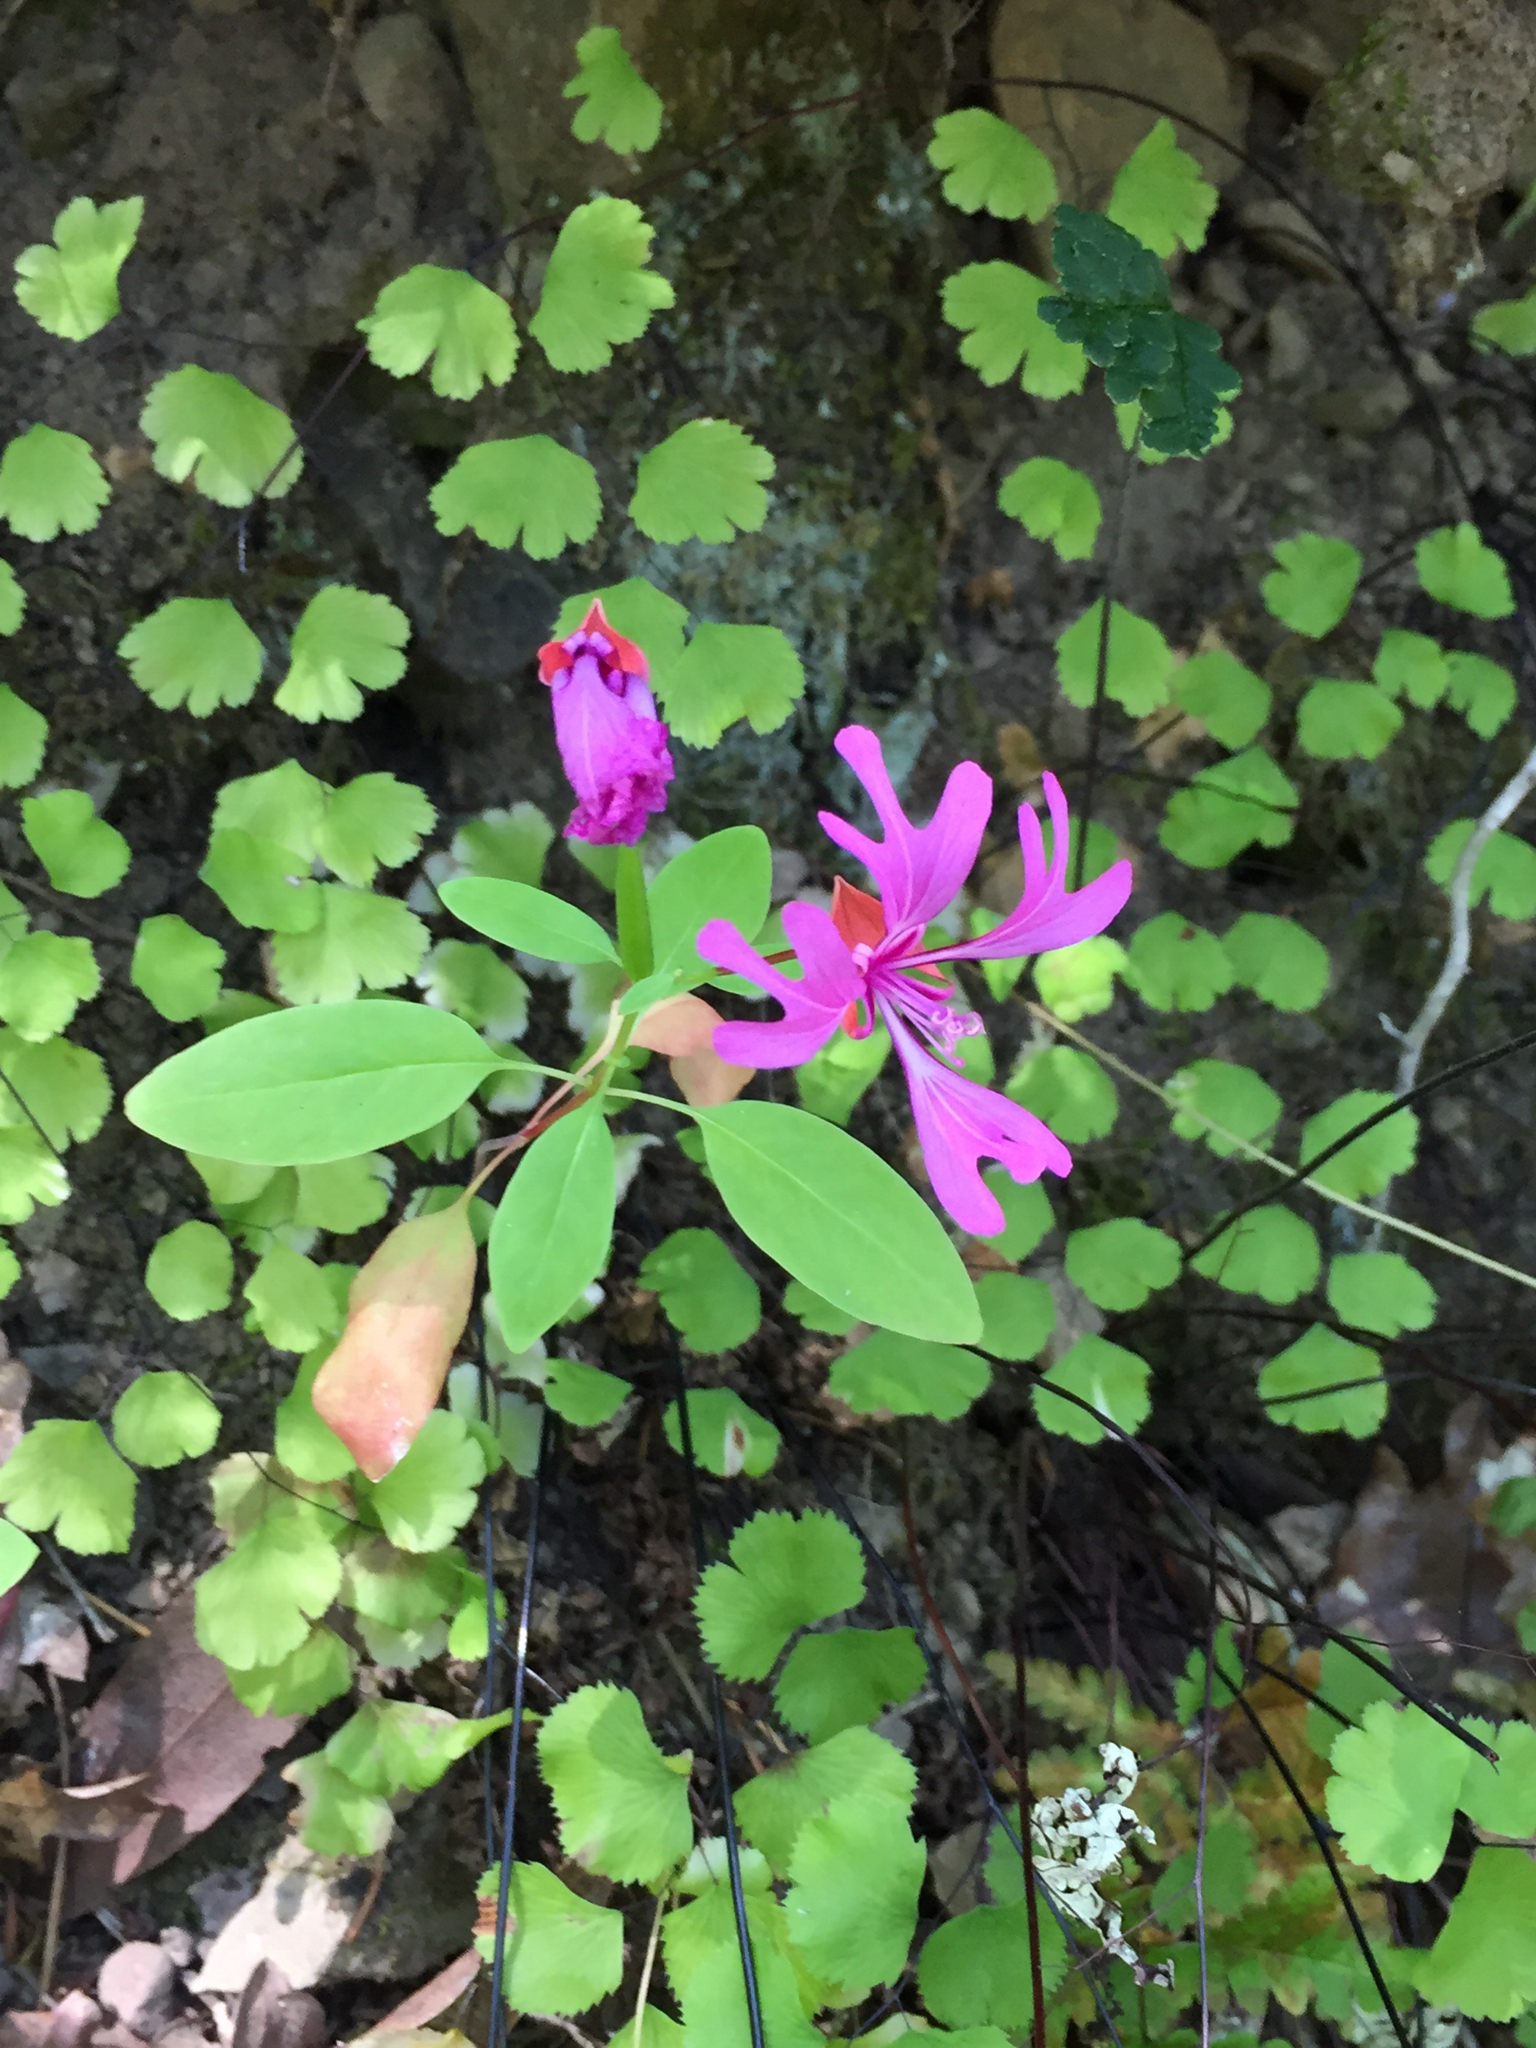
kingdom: Plantae
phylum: Tracheophyta
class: Magnoliopsida
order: Myrtales
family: Onagraceae
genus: Clarkia
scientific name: Clarkia concinna
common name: Red-ribbons
